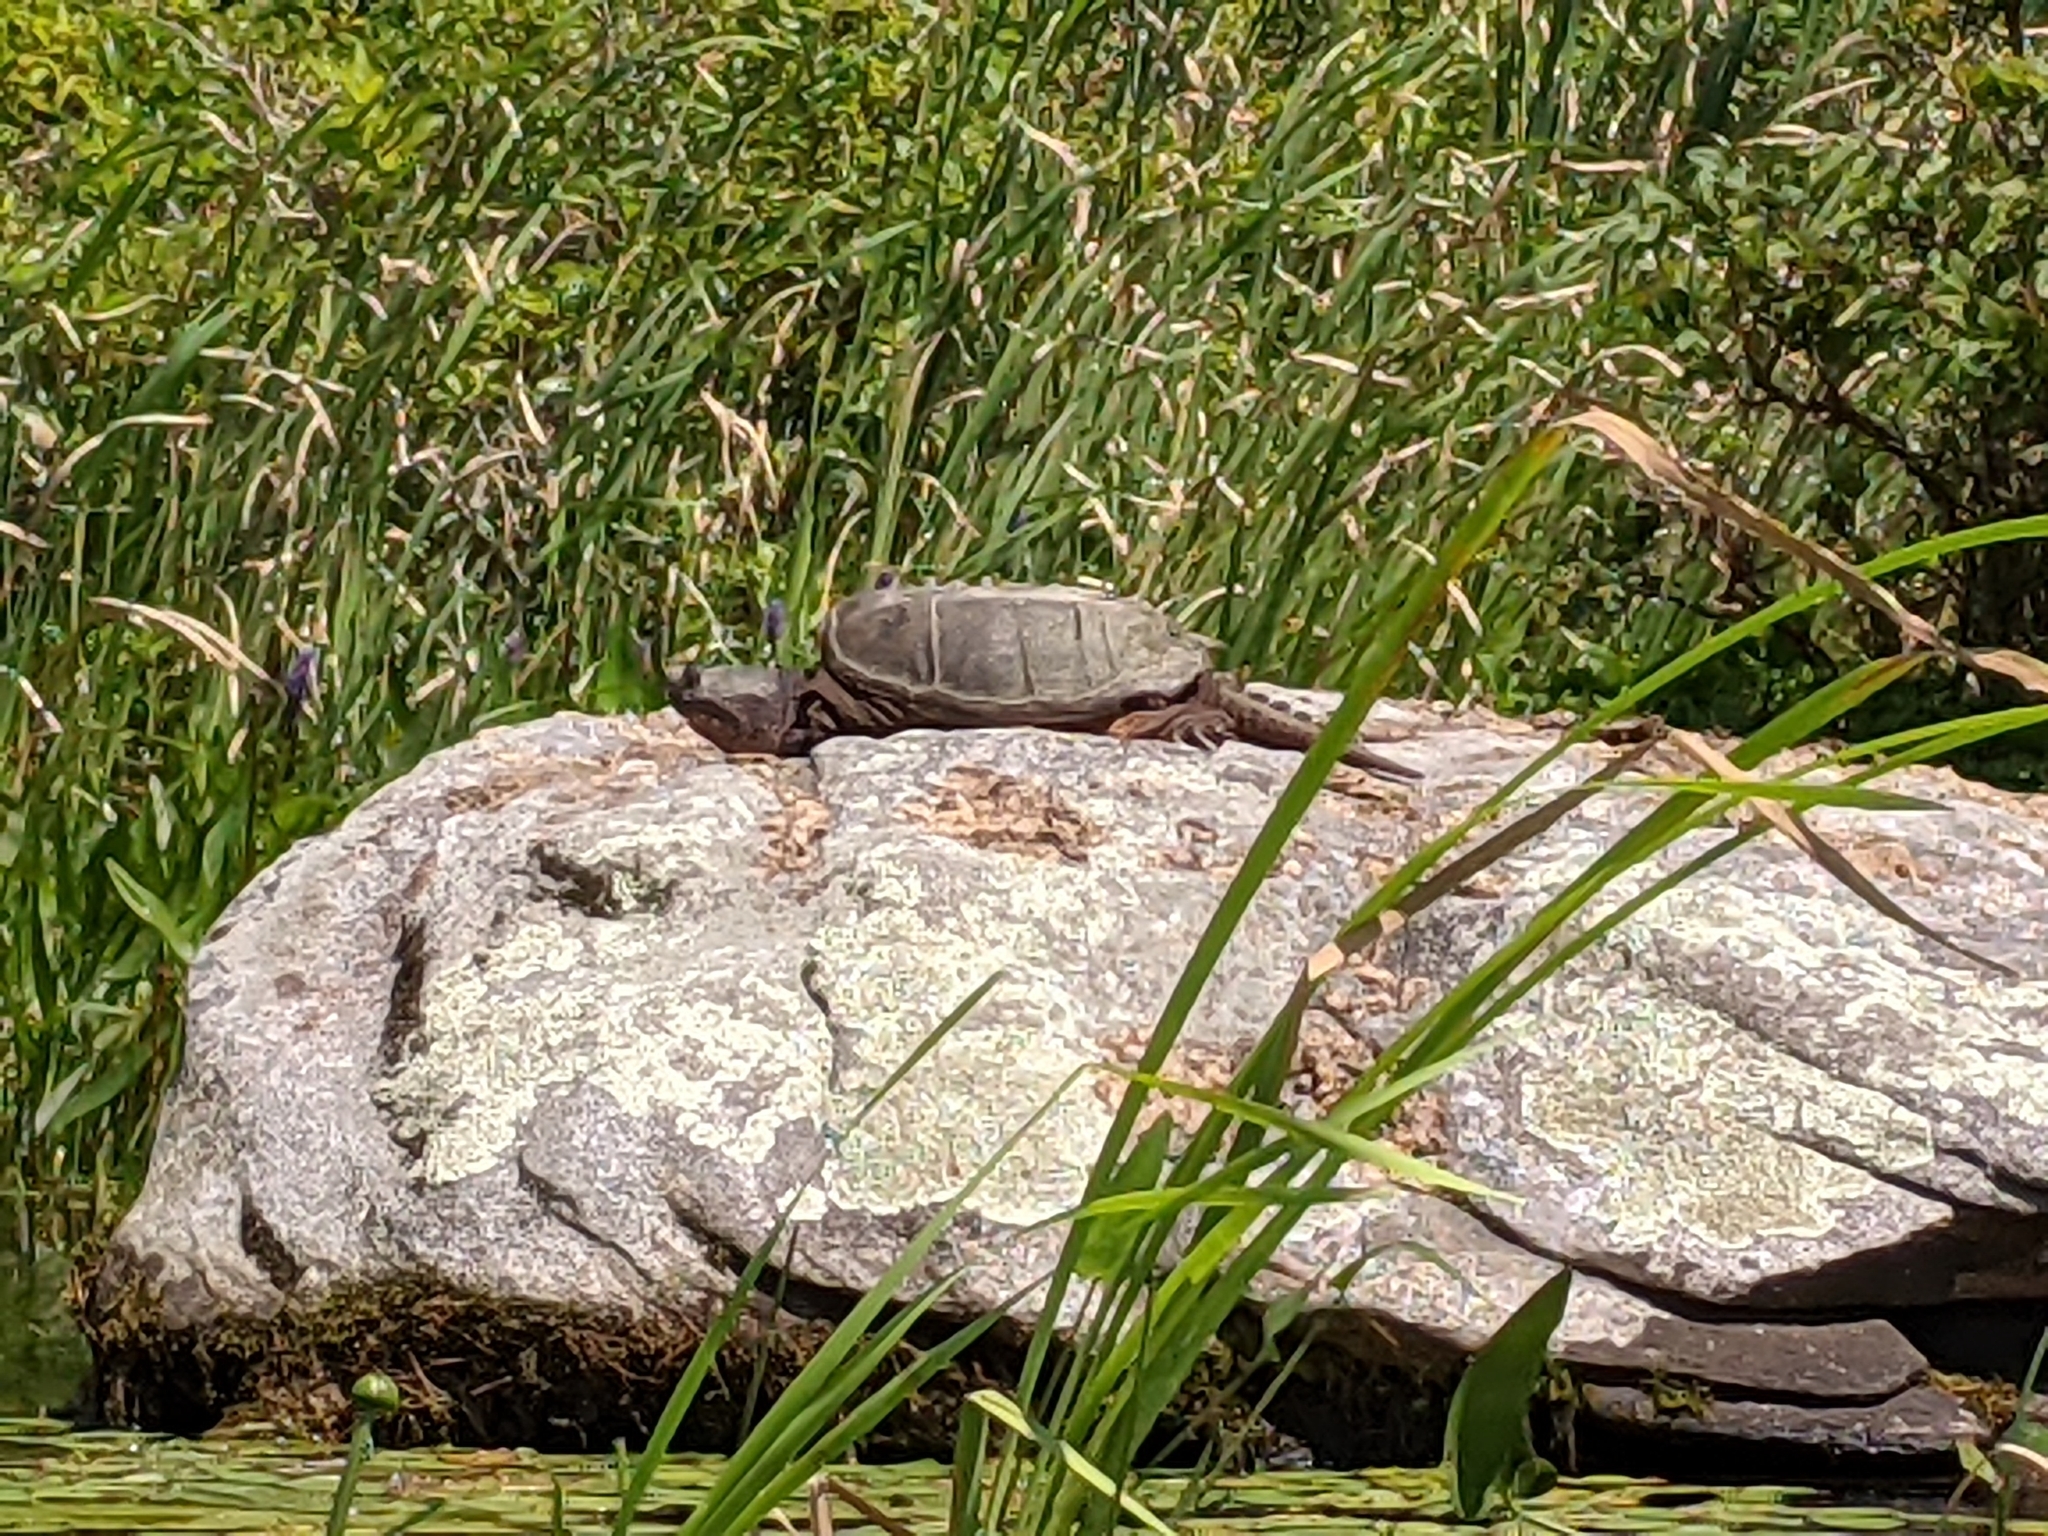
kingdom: Animalia
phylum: Chordata
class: Testudines
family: Chelydridae
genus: Chelydra
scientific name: Chelydra serpentina
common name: Common snapping turtle
